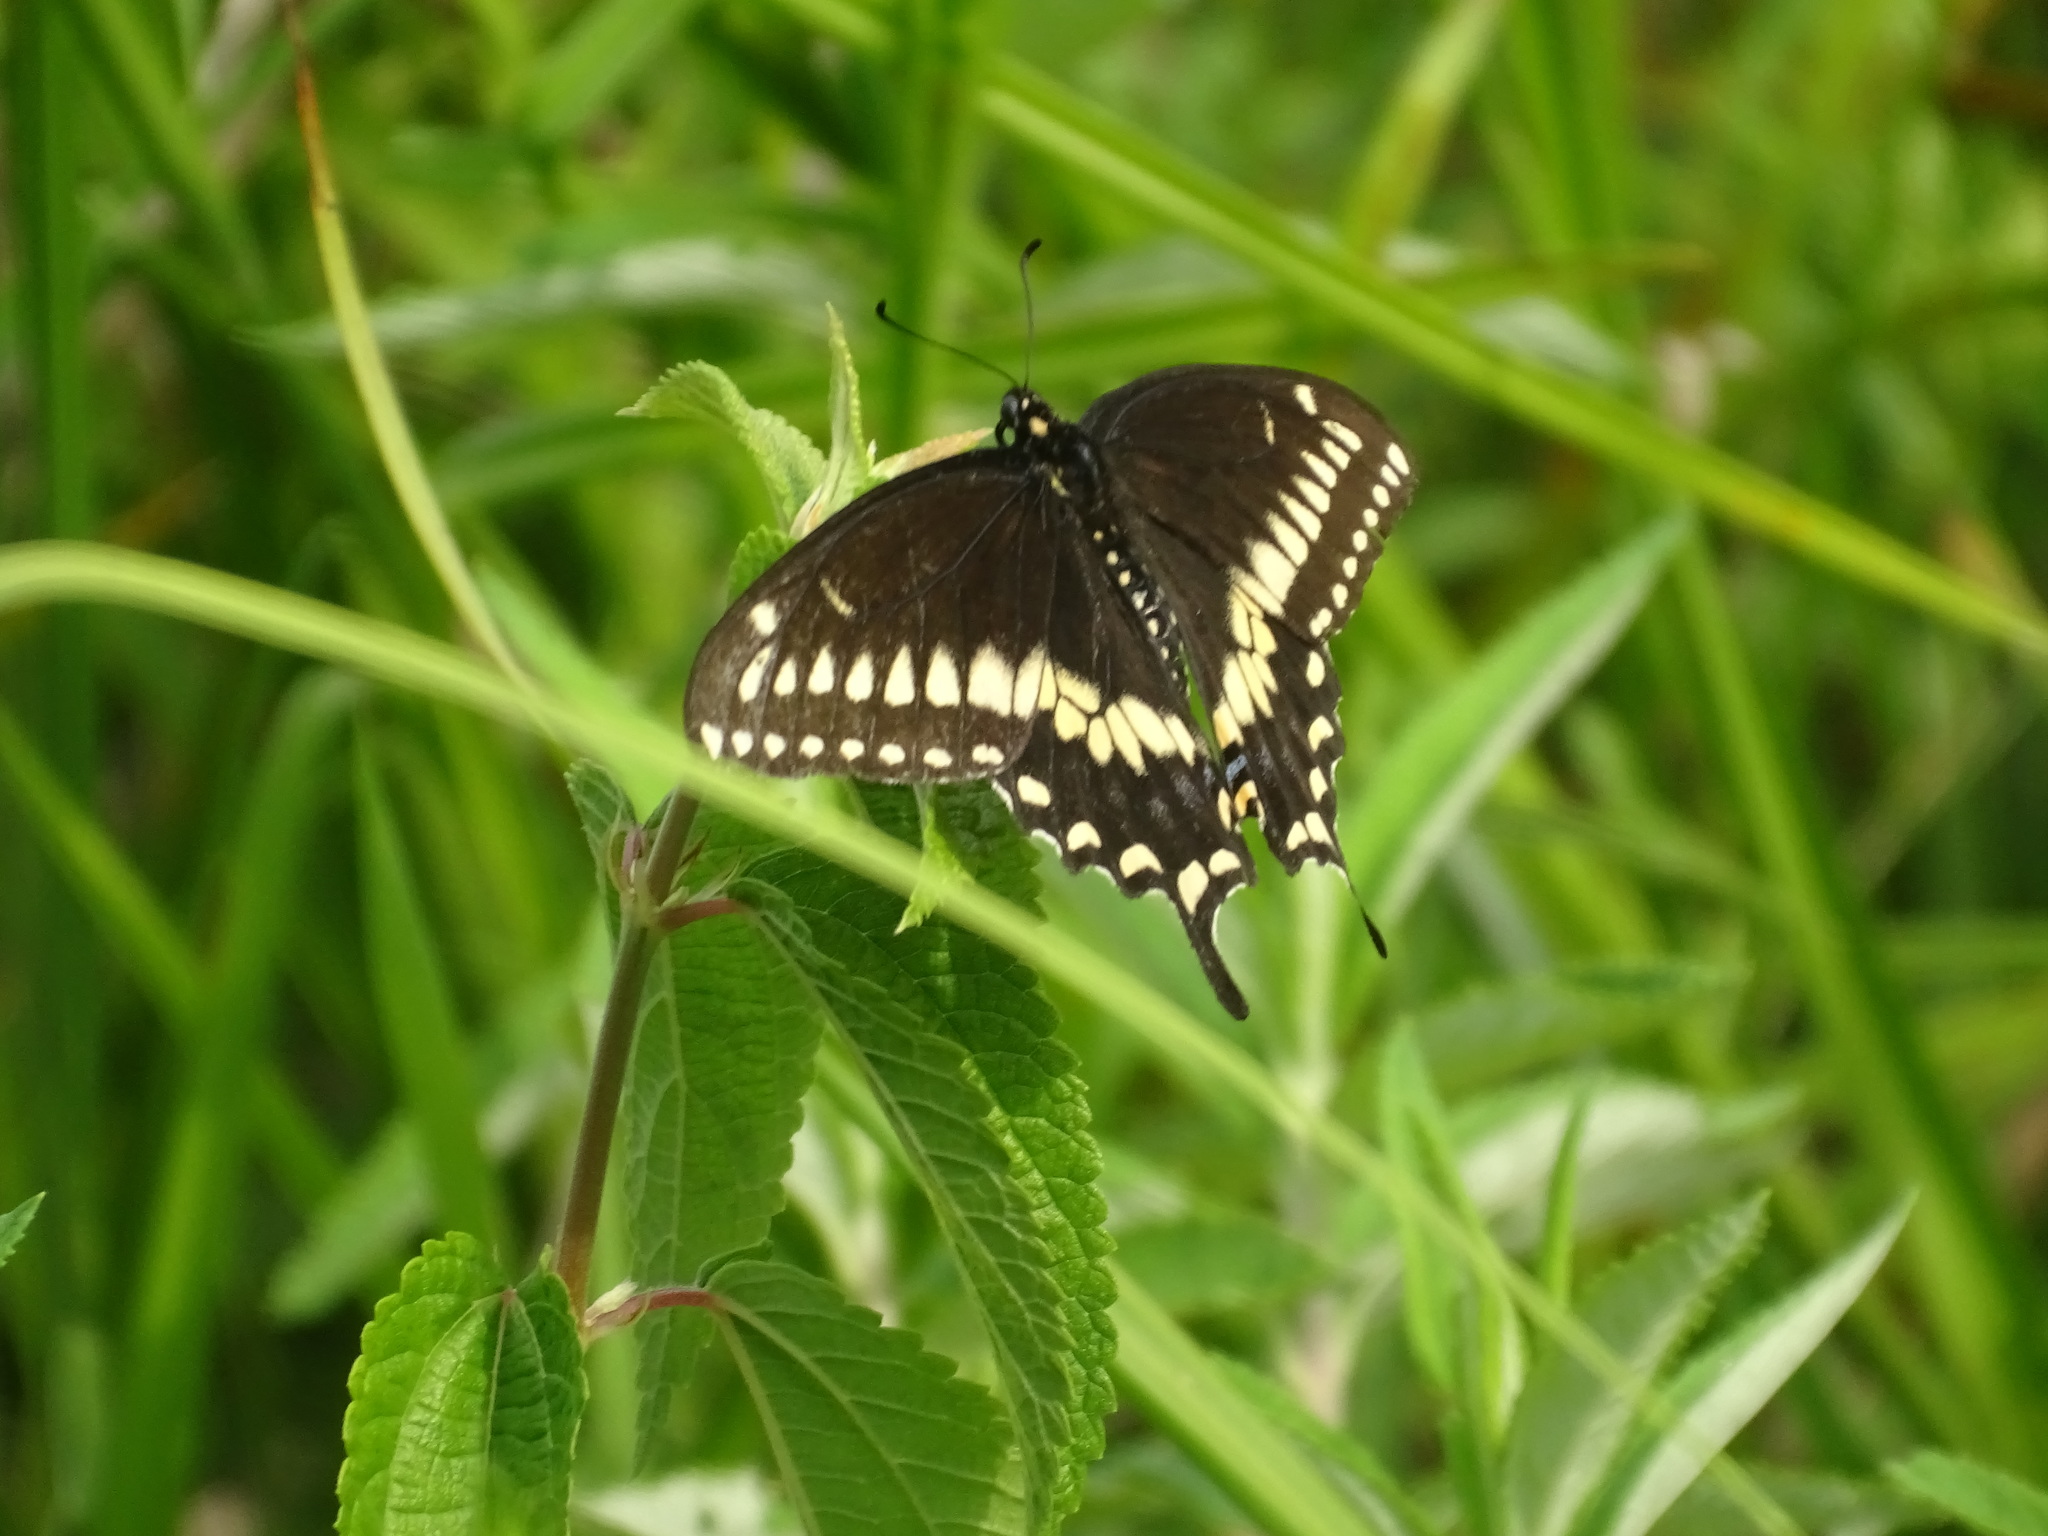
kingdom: Animalia
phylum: Arthropoda
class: Insecta
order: Lepidoptera
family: Papilionidae
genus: Papilio
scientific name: Papilio polyxenes
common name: Black swallowtail
